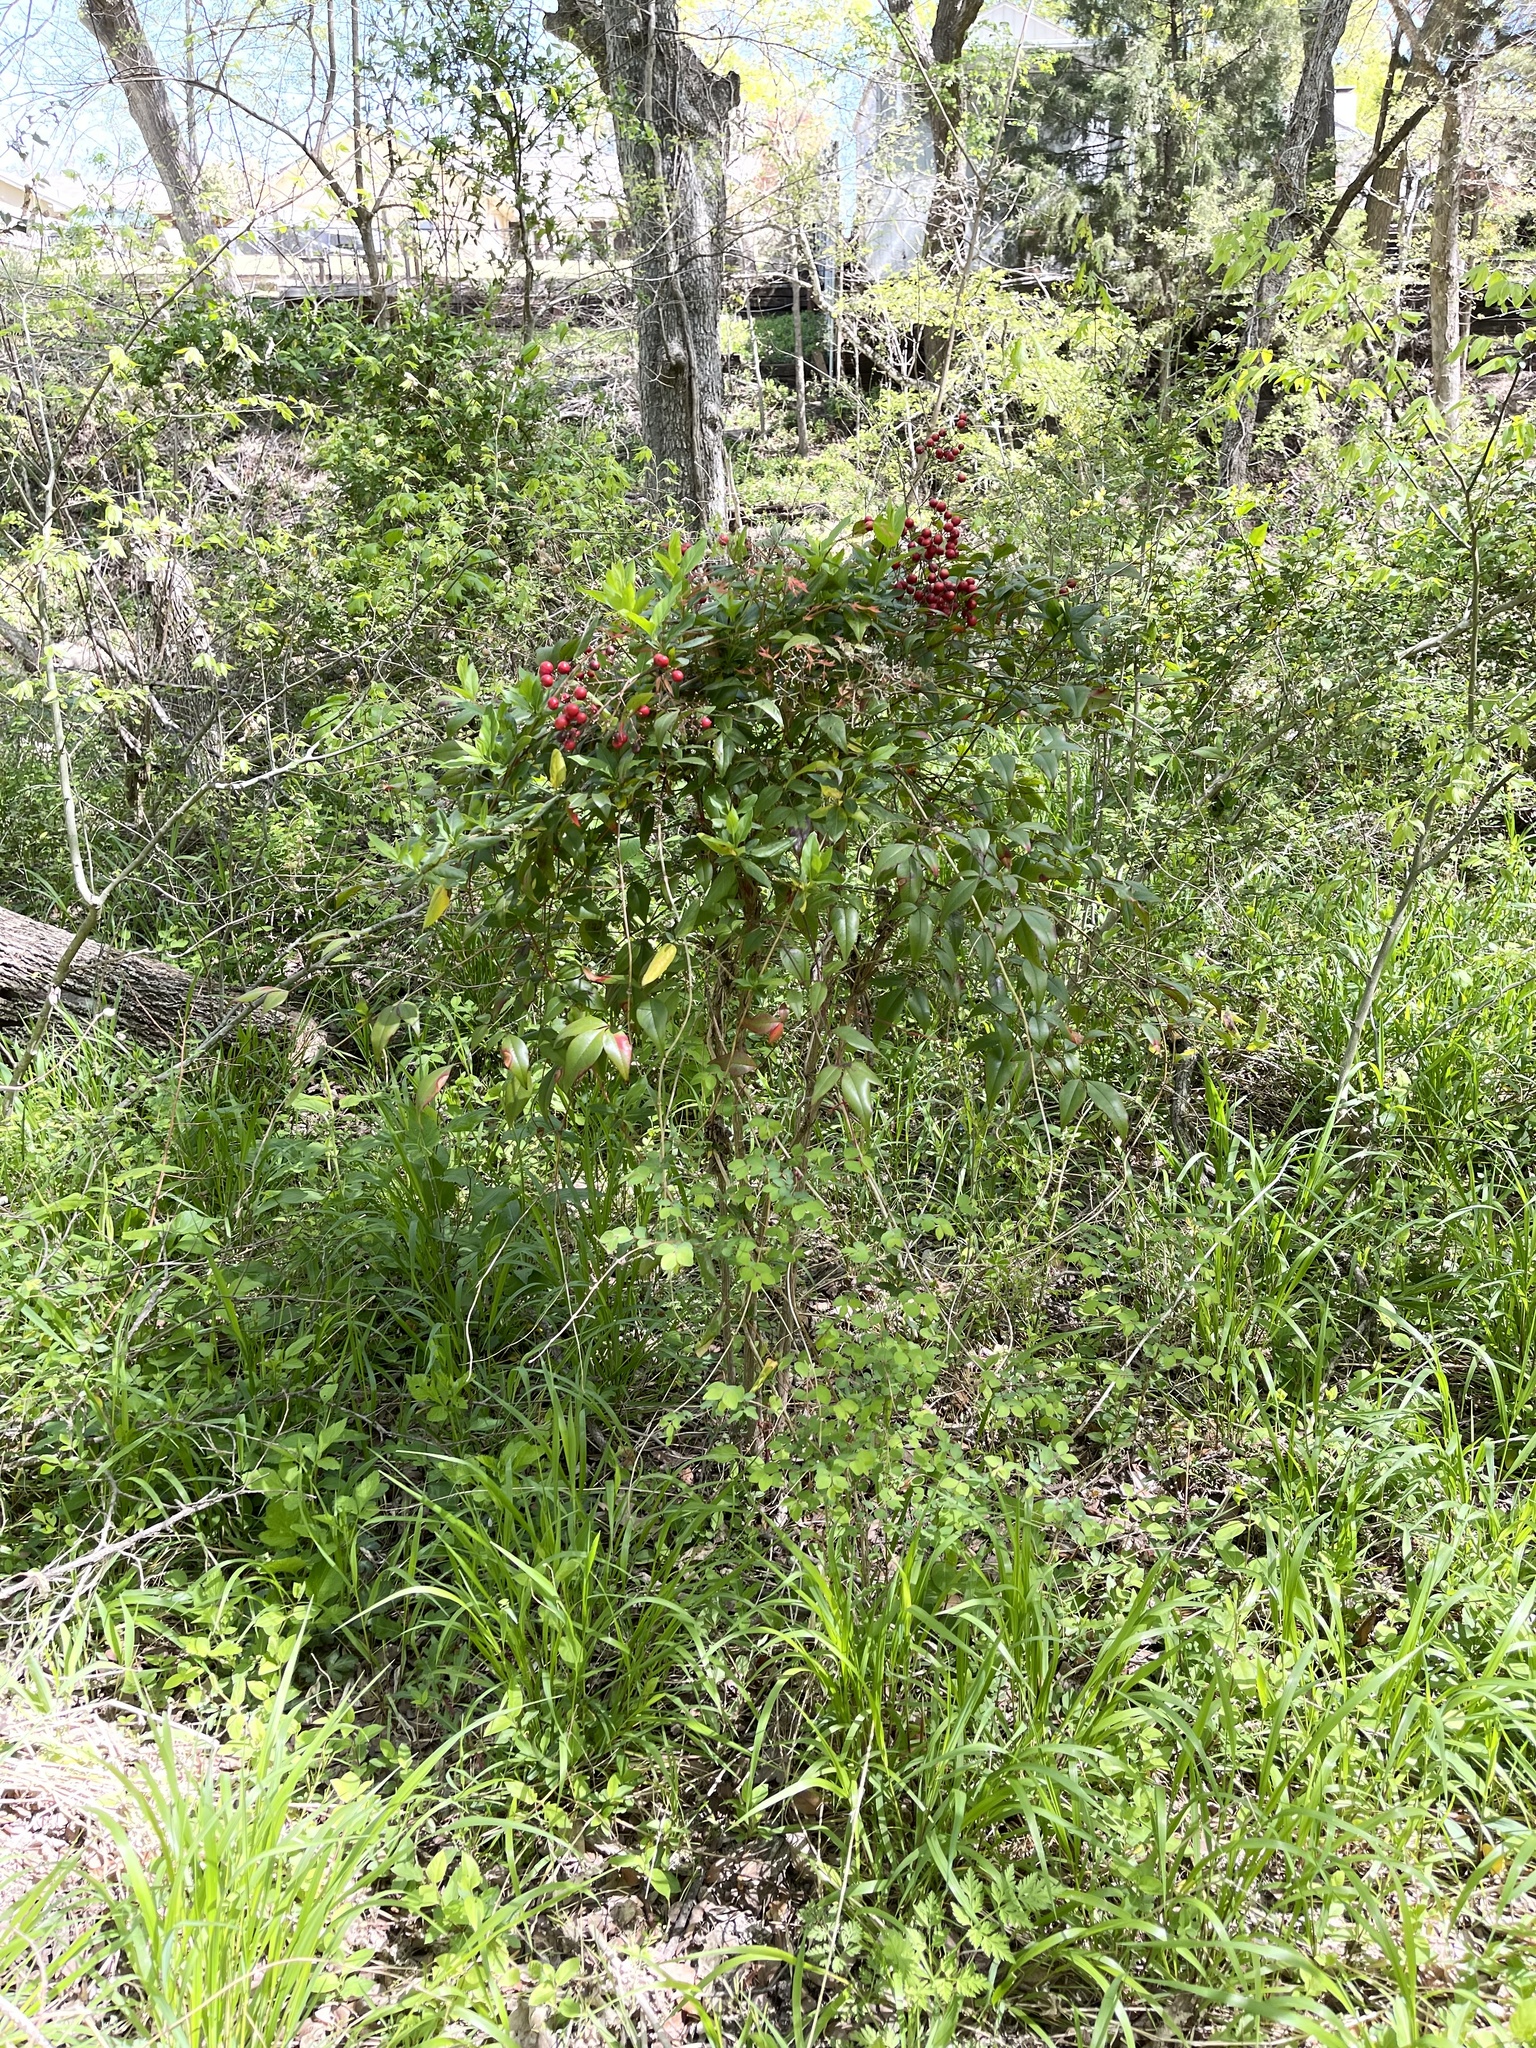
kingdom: Plantae
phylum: Tracheophyta
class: Magnoliopsida
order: Ranunculales
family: Berberidaceae
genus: Nandina
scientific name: Nandina domestica
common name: Sacred bamboo
